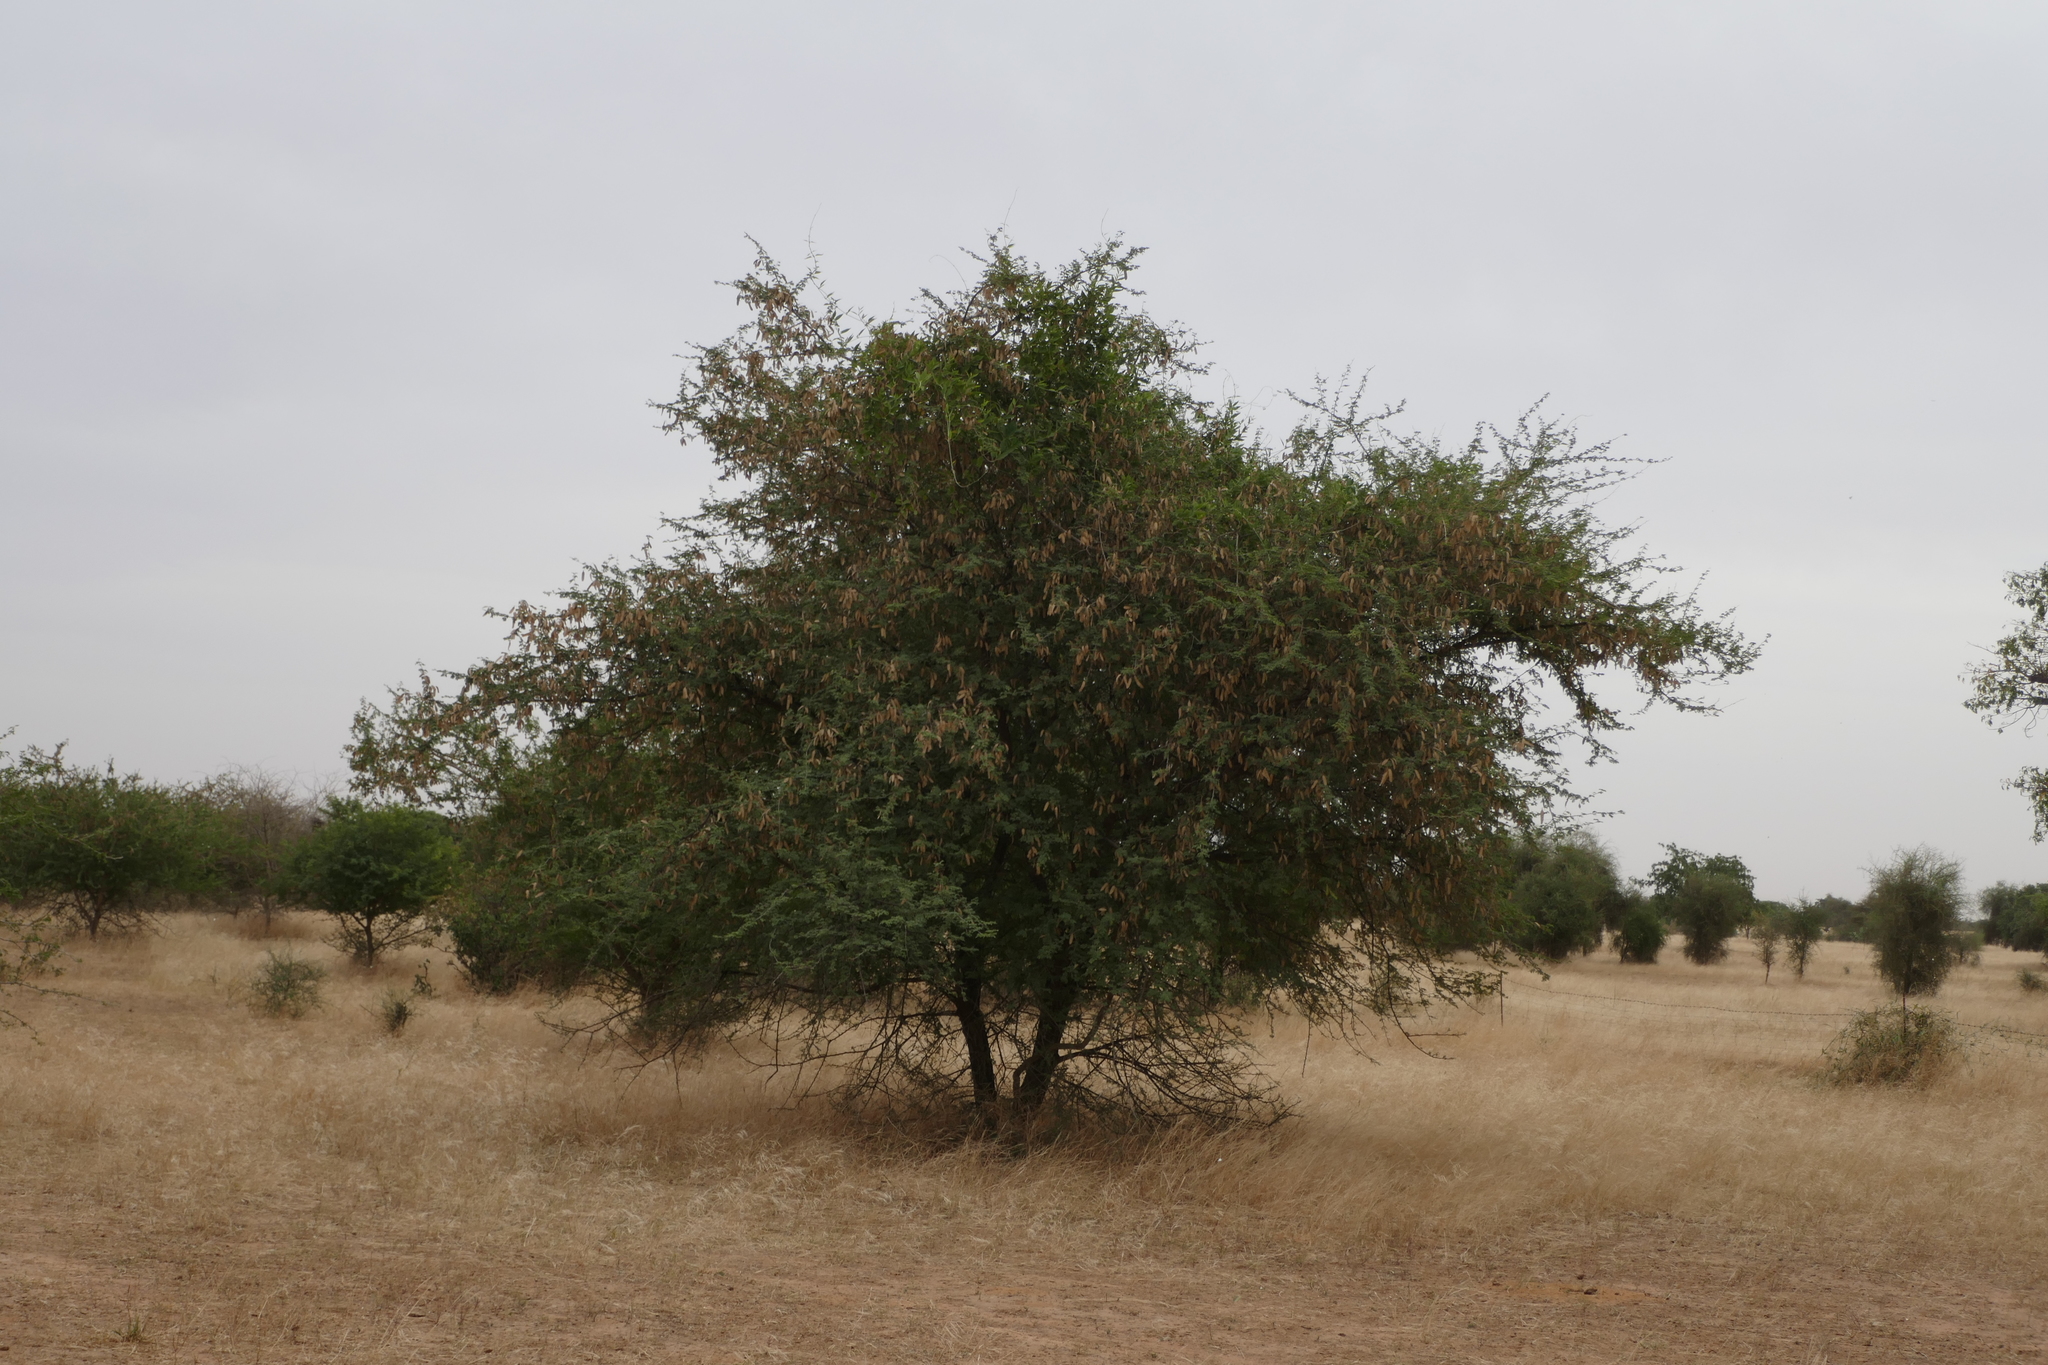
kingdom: Plantae
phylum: Tracheophyta
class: Magnoliopsida
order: Fabales
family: Fabaceae
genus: Senegalia
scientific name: Senegalia senegal
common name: Senegal-gum
